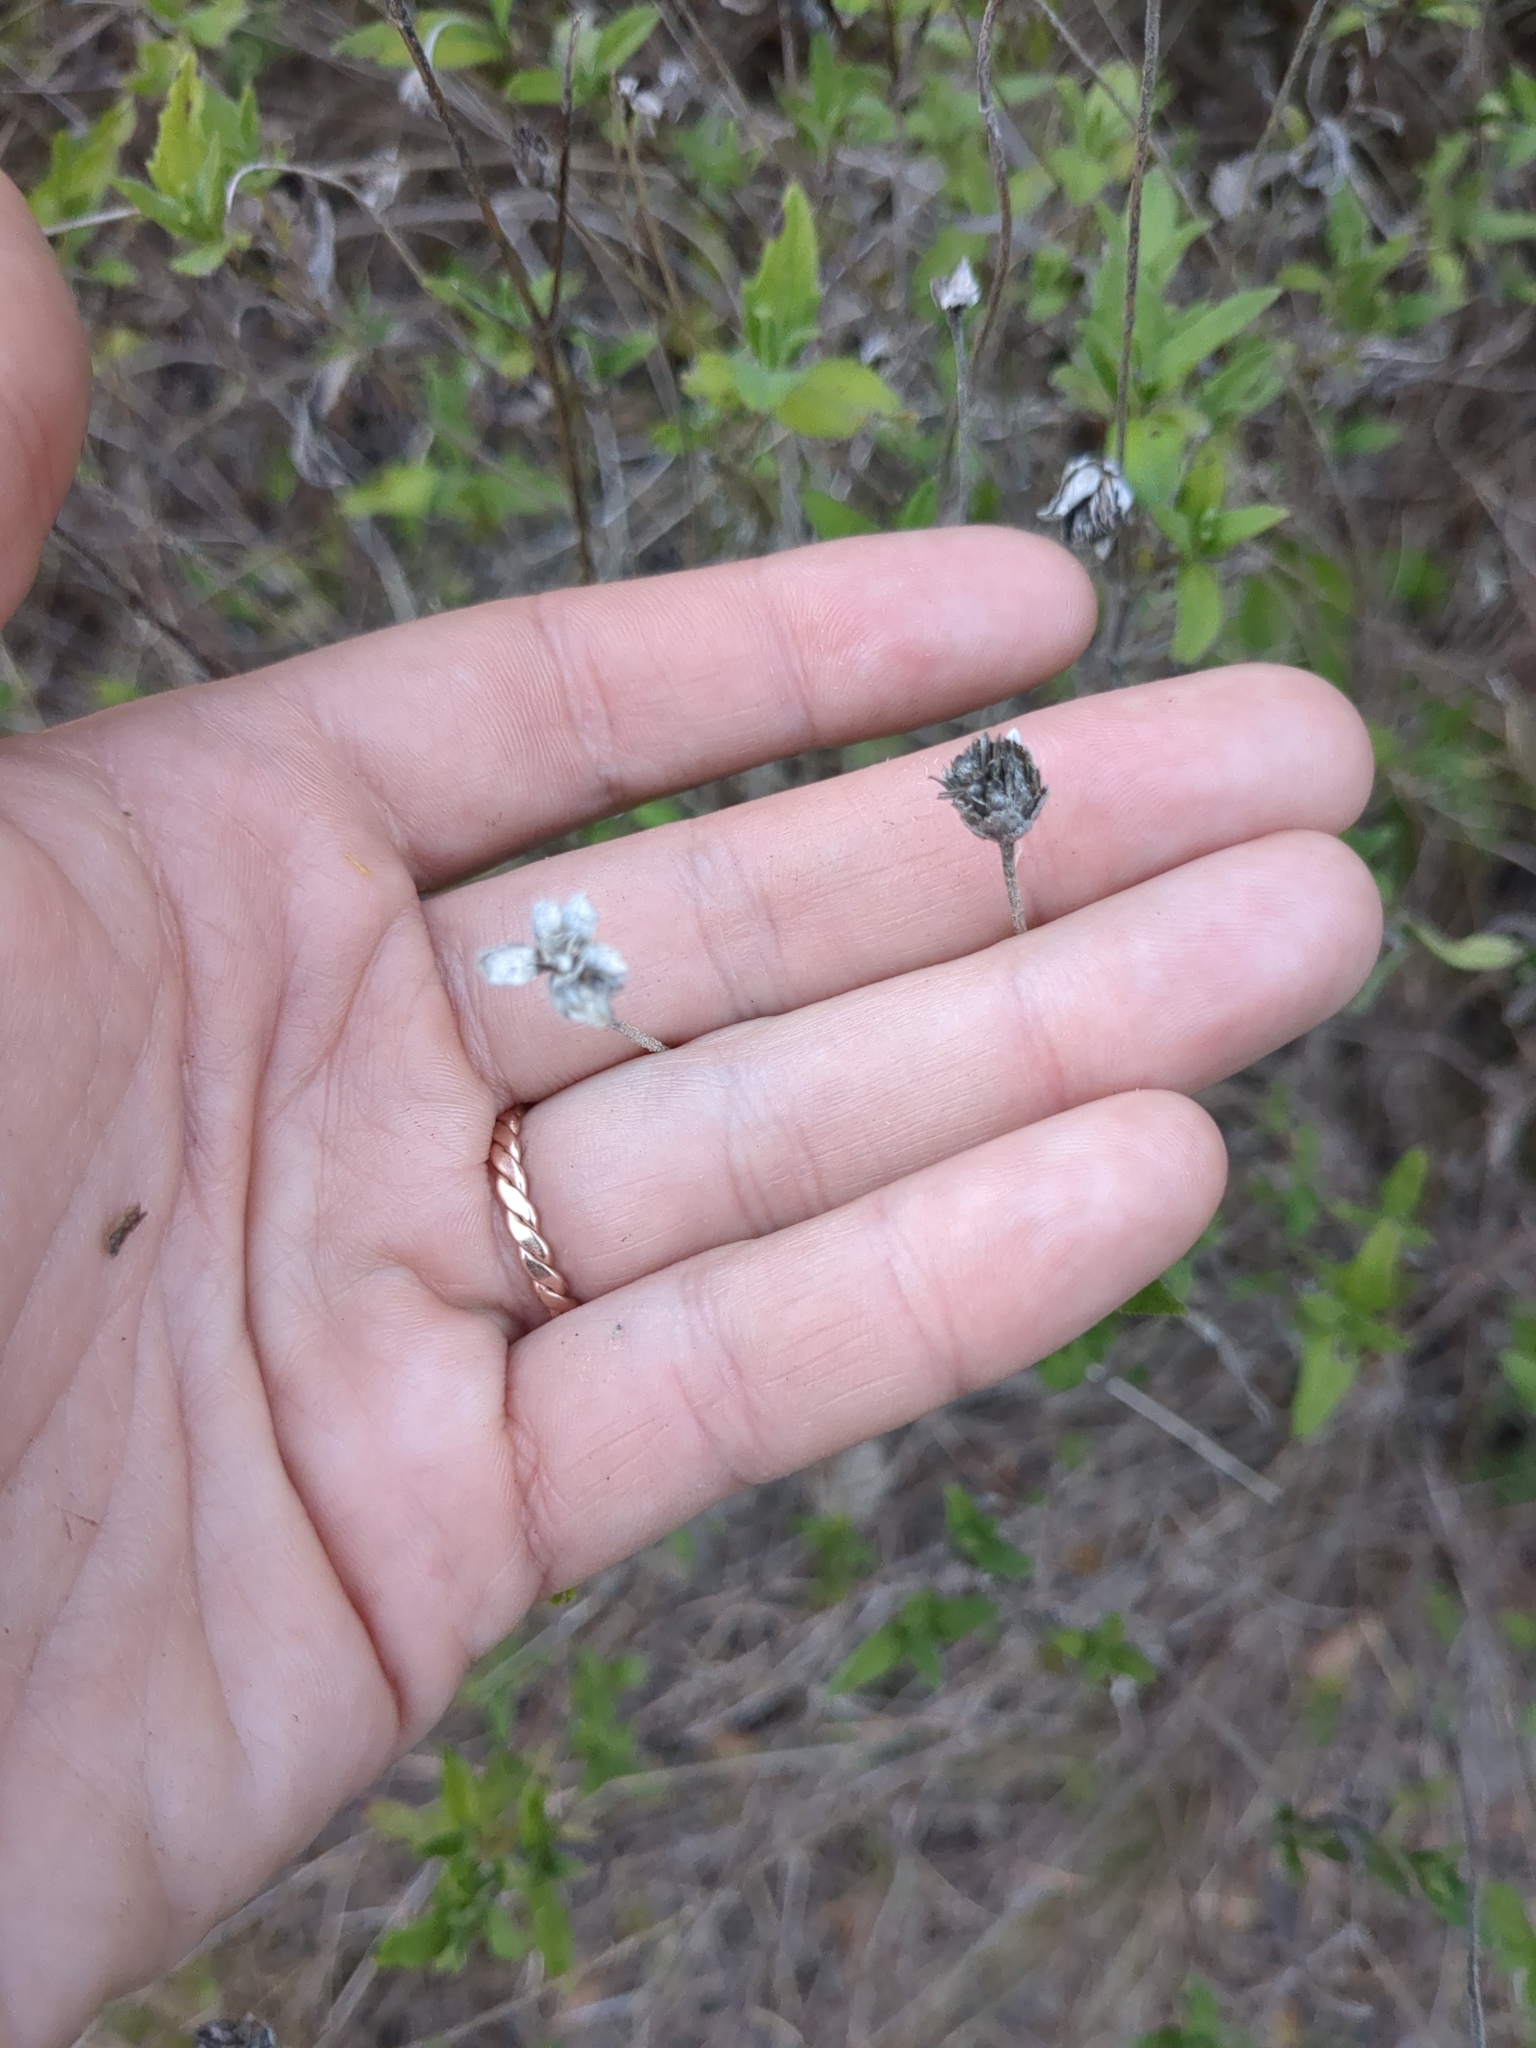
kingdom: Plantae
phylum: Tracheophyta
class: Magnoliopsida
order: Asterales
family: Asteraceae
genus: Wedelia
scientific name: Wedelia acapulcensis
